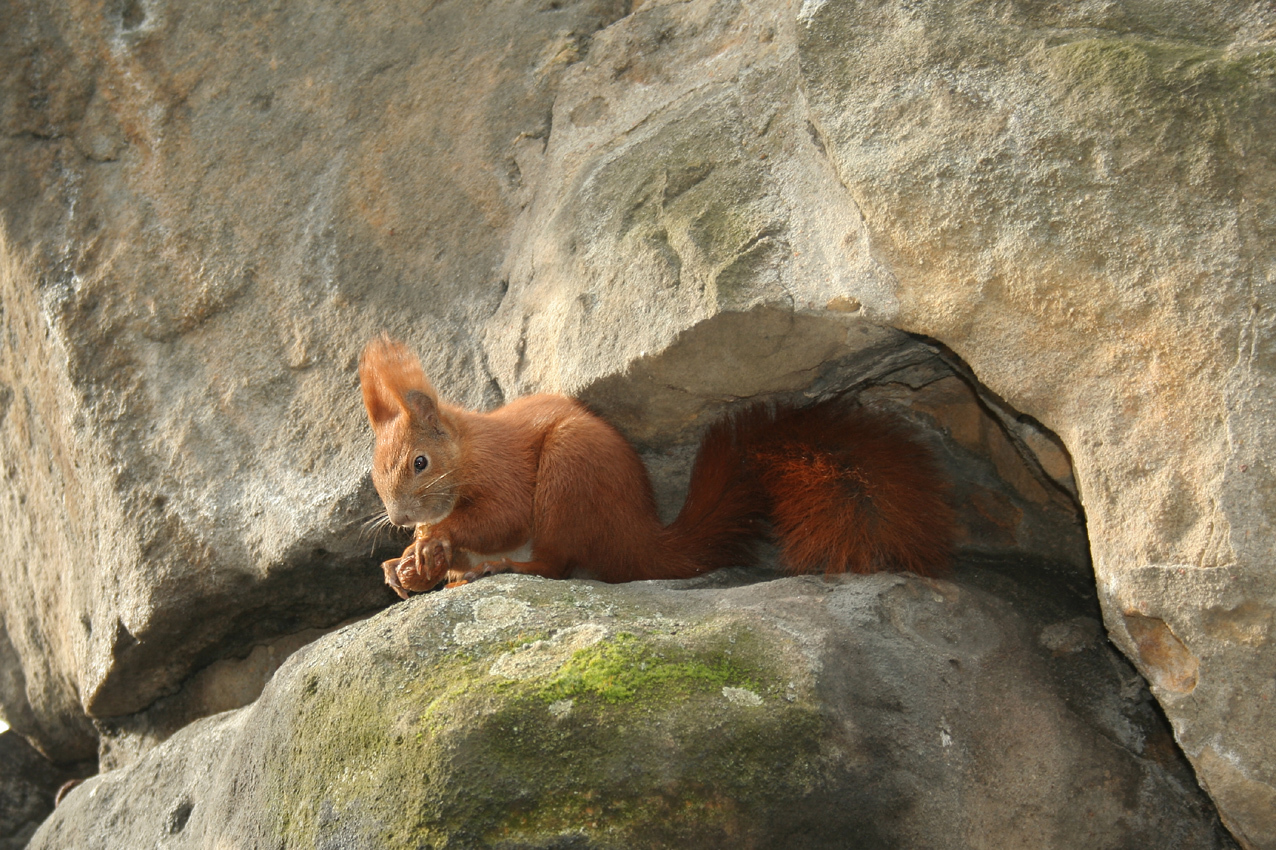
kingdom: Animalia
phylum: Chordata
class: Mammalia
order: Rodentia
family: Sciuridae
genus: Sciurus
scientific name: Sciurus vulgaris
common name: Eurasian red squirrel
